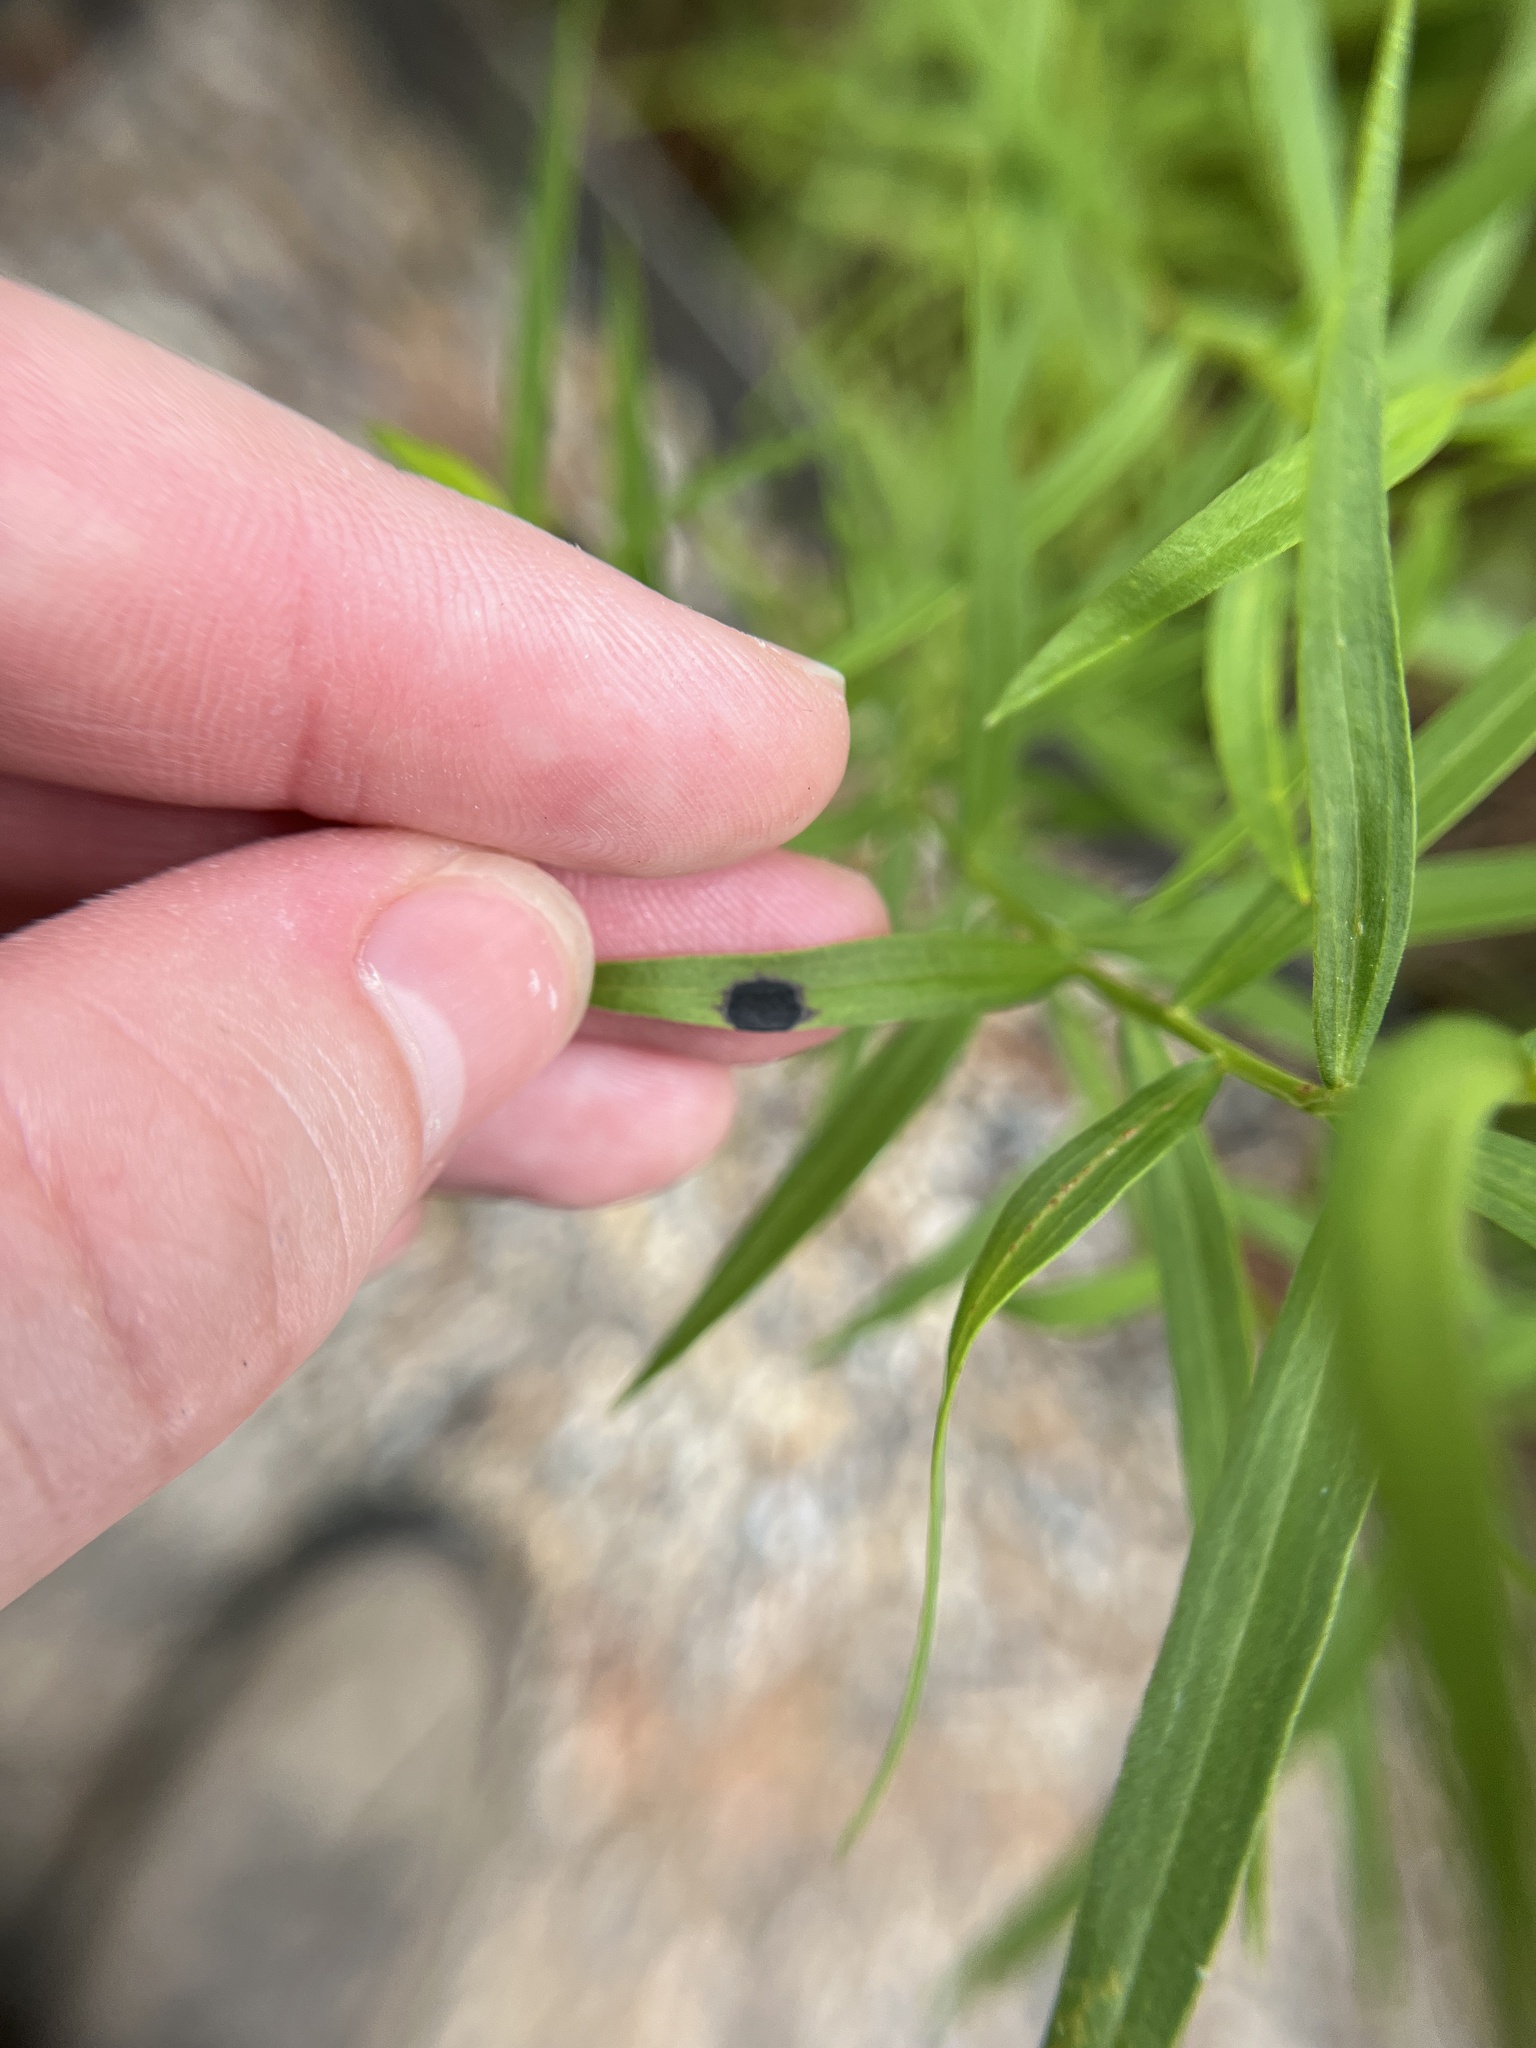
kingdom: Animalia
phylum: Arthropoda
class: Insecta
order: Diptera
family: Cecidomyiidae
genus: Asteromyia
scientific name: Asteromyia euthamiae
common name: Euthamia leaf gall midge
